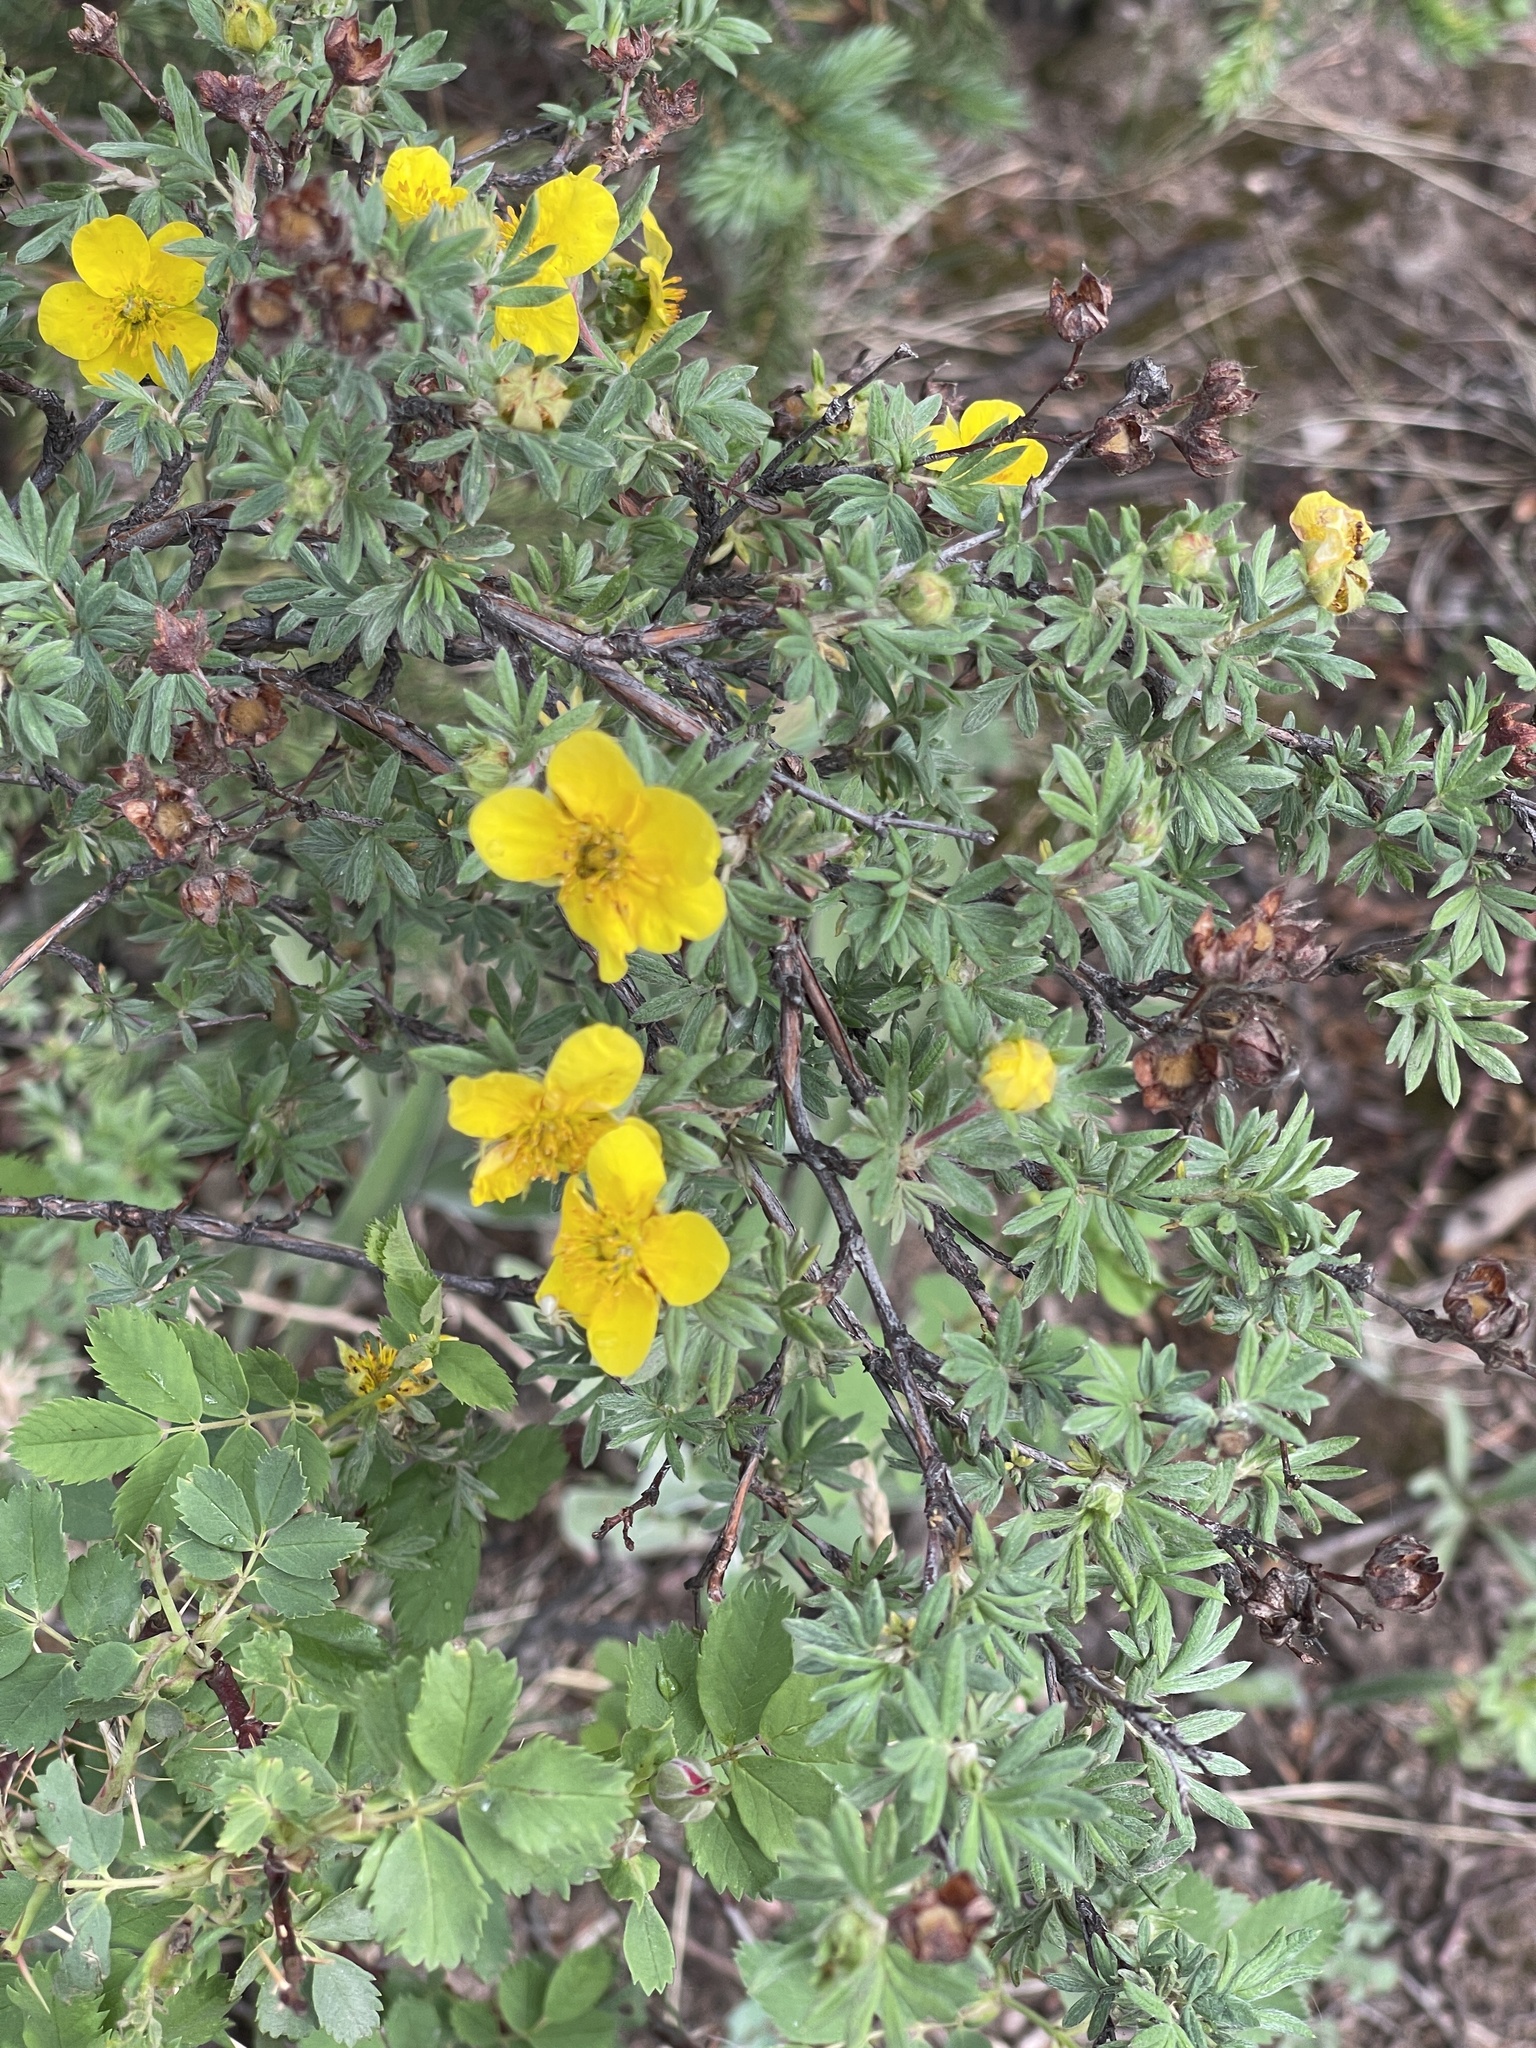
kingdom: Plantae
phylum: Tracheophyta
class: Magnoliopsida
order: Rosales
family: Rosaceae
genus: Dasiphora
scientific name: Dasiphora fruticosa
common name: Shrubby cinquefoil
